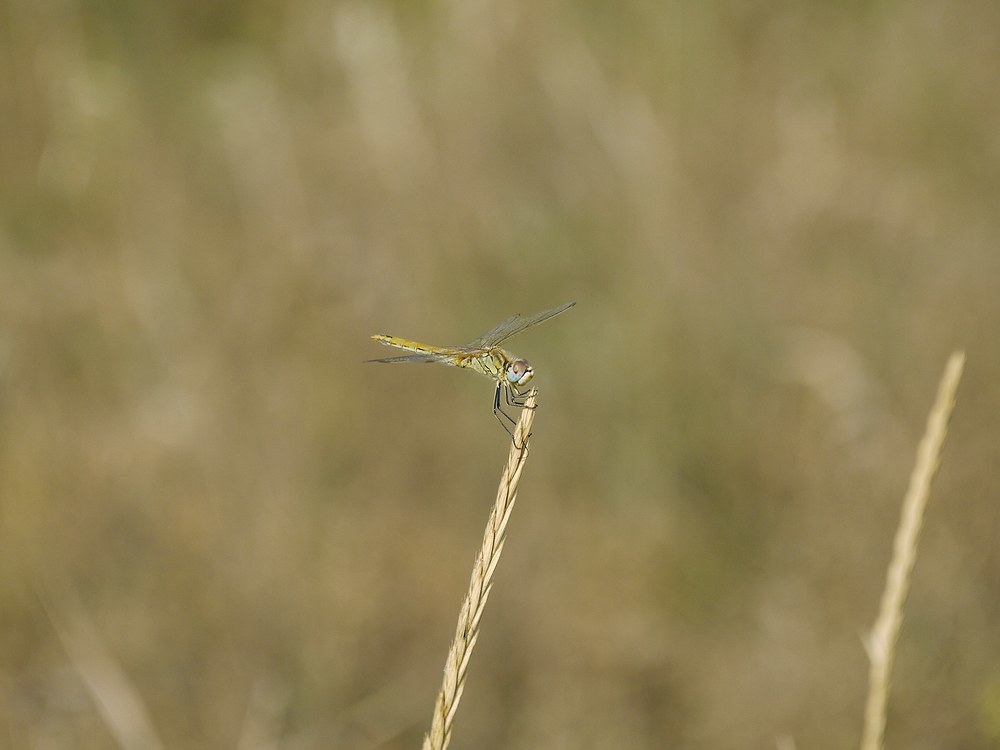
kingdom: Animalia
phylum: Arthropoda
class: Insecta
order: Odonata
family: Libellulidae
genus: Sympetrum
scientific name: Sympetrum fonscolombii
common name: Red-veined darter
